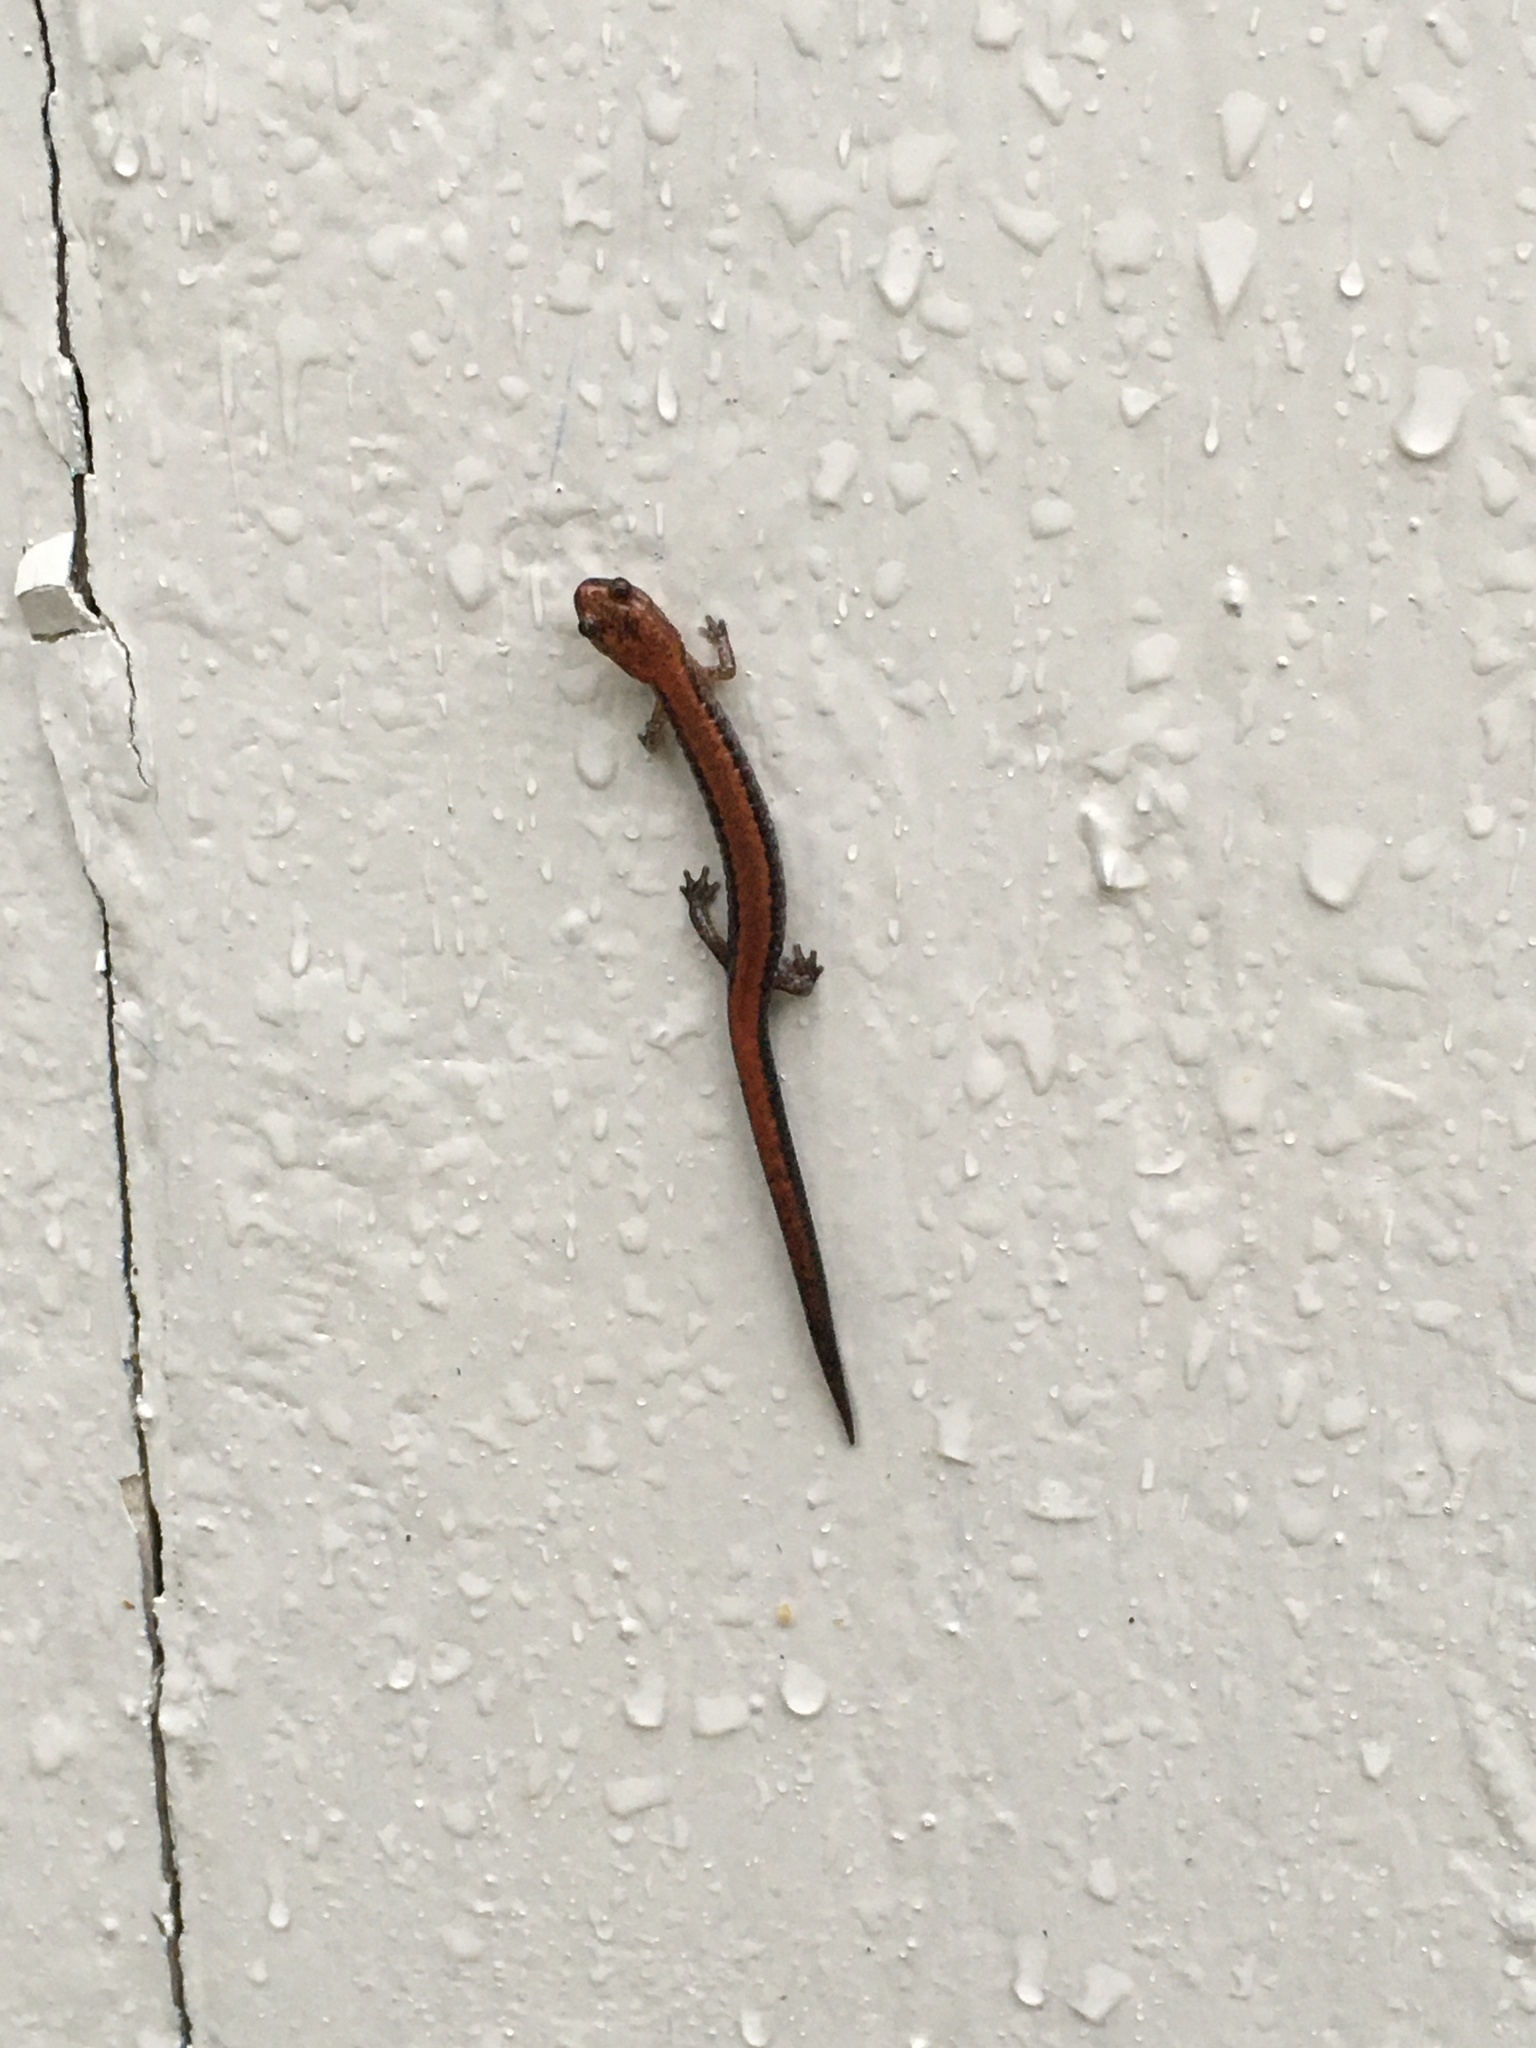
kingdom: Animalia
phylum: Chordata
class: Amphibia
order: Caudata
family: Plethodontidae
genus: Plethodon
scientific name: Plethodon cinereus
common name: Redback salamander
